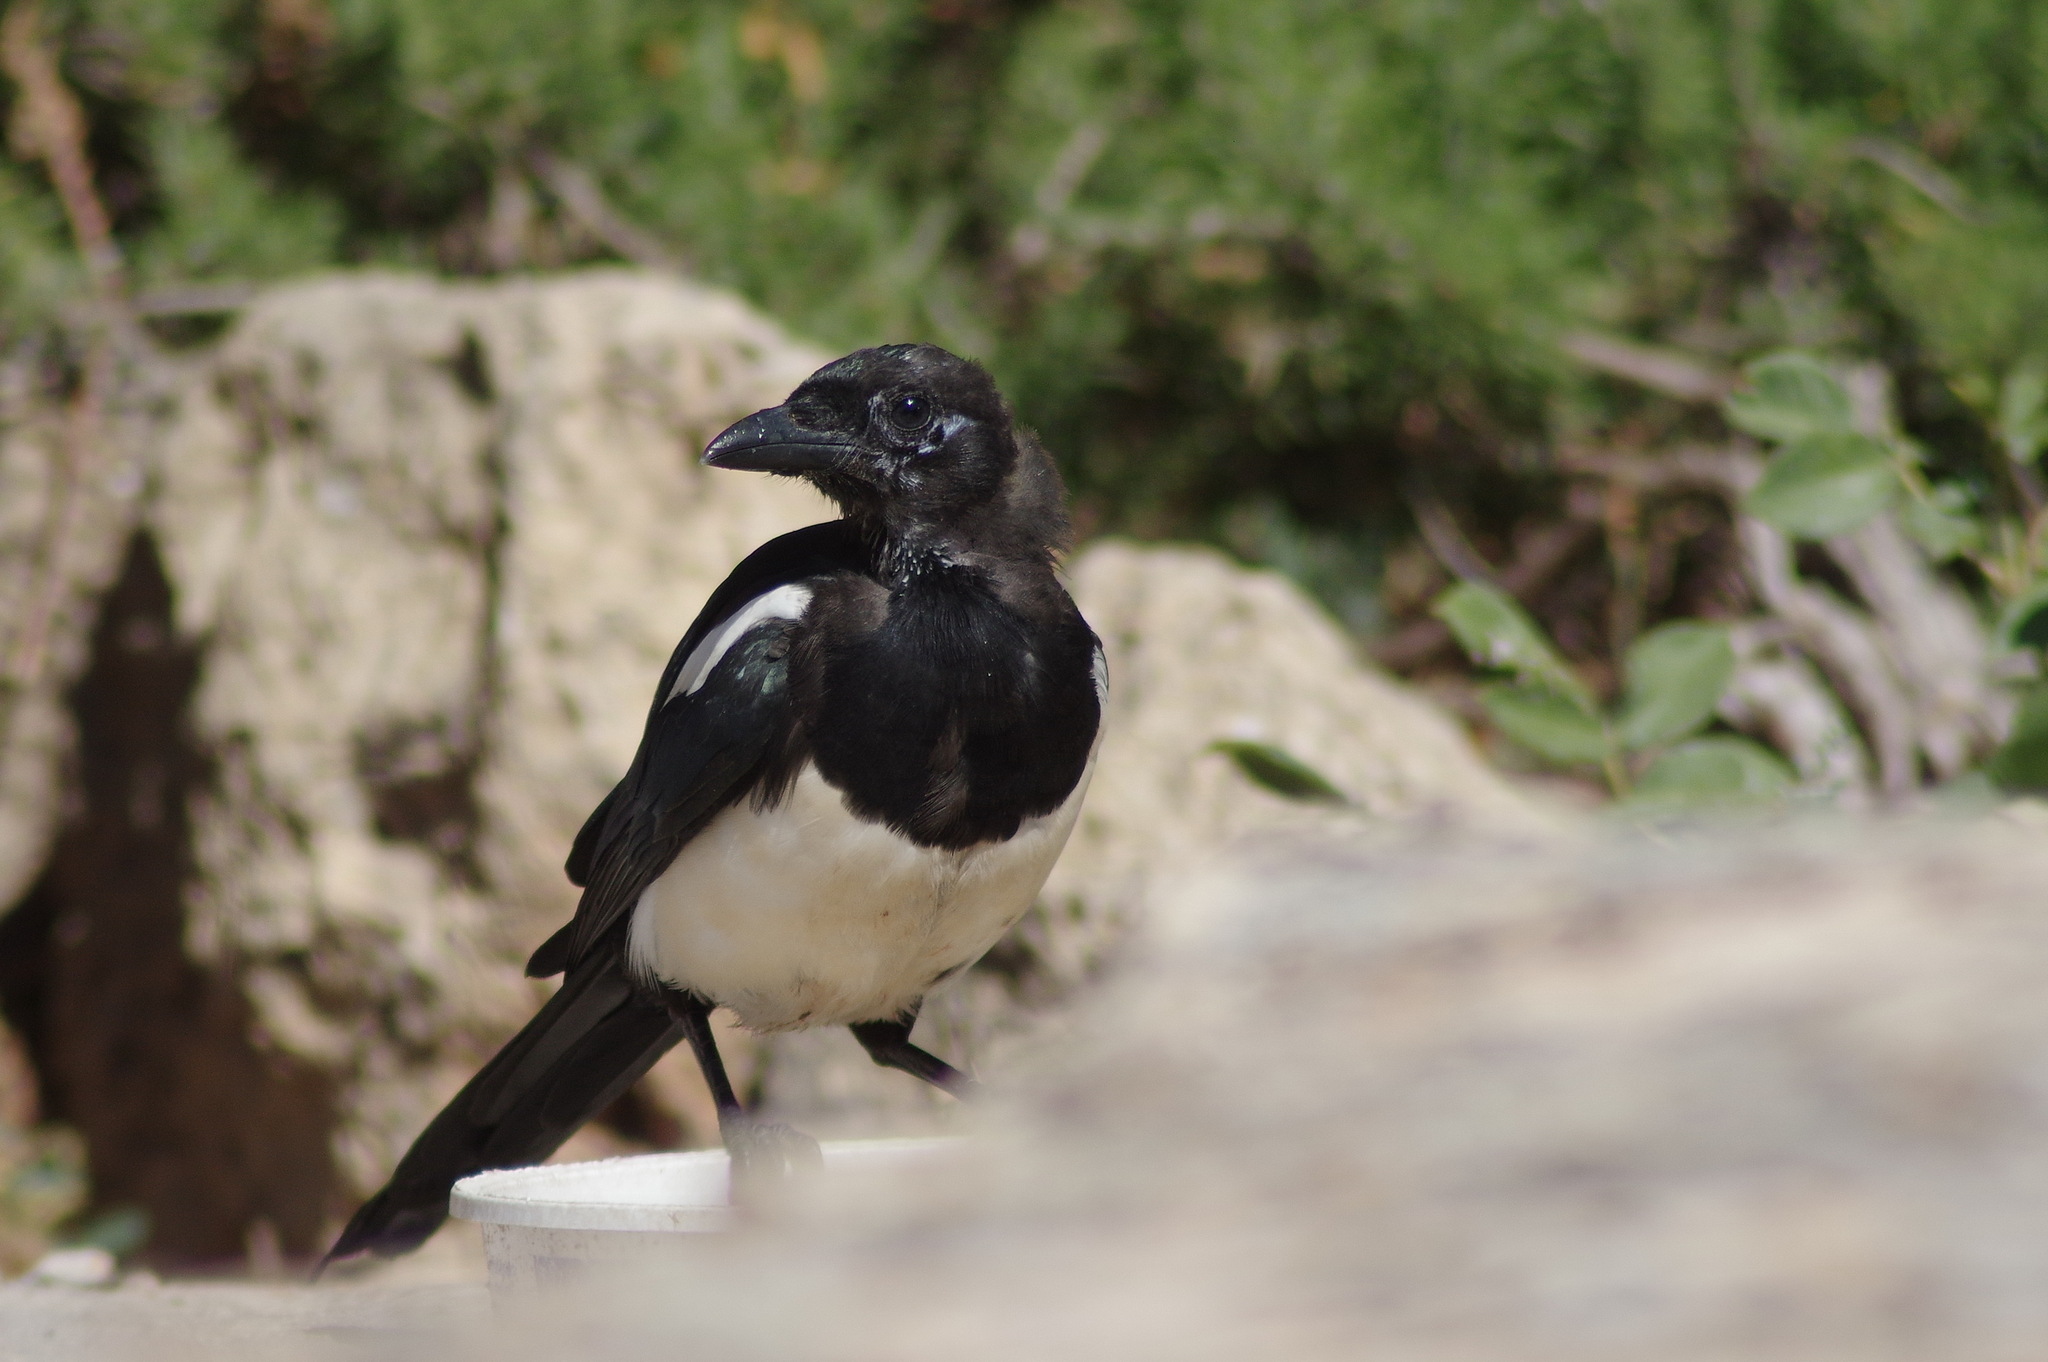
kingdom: Animalia
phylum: Chordata
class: Aves
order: Passeriformes
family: Corvidae
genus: Pica
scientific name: Pica pica
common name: Eurasian magpie
